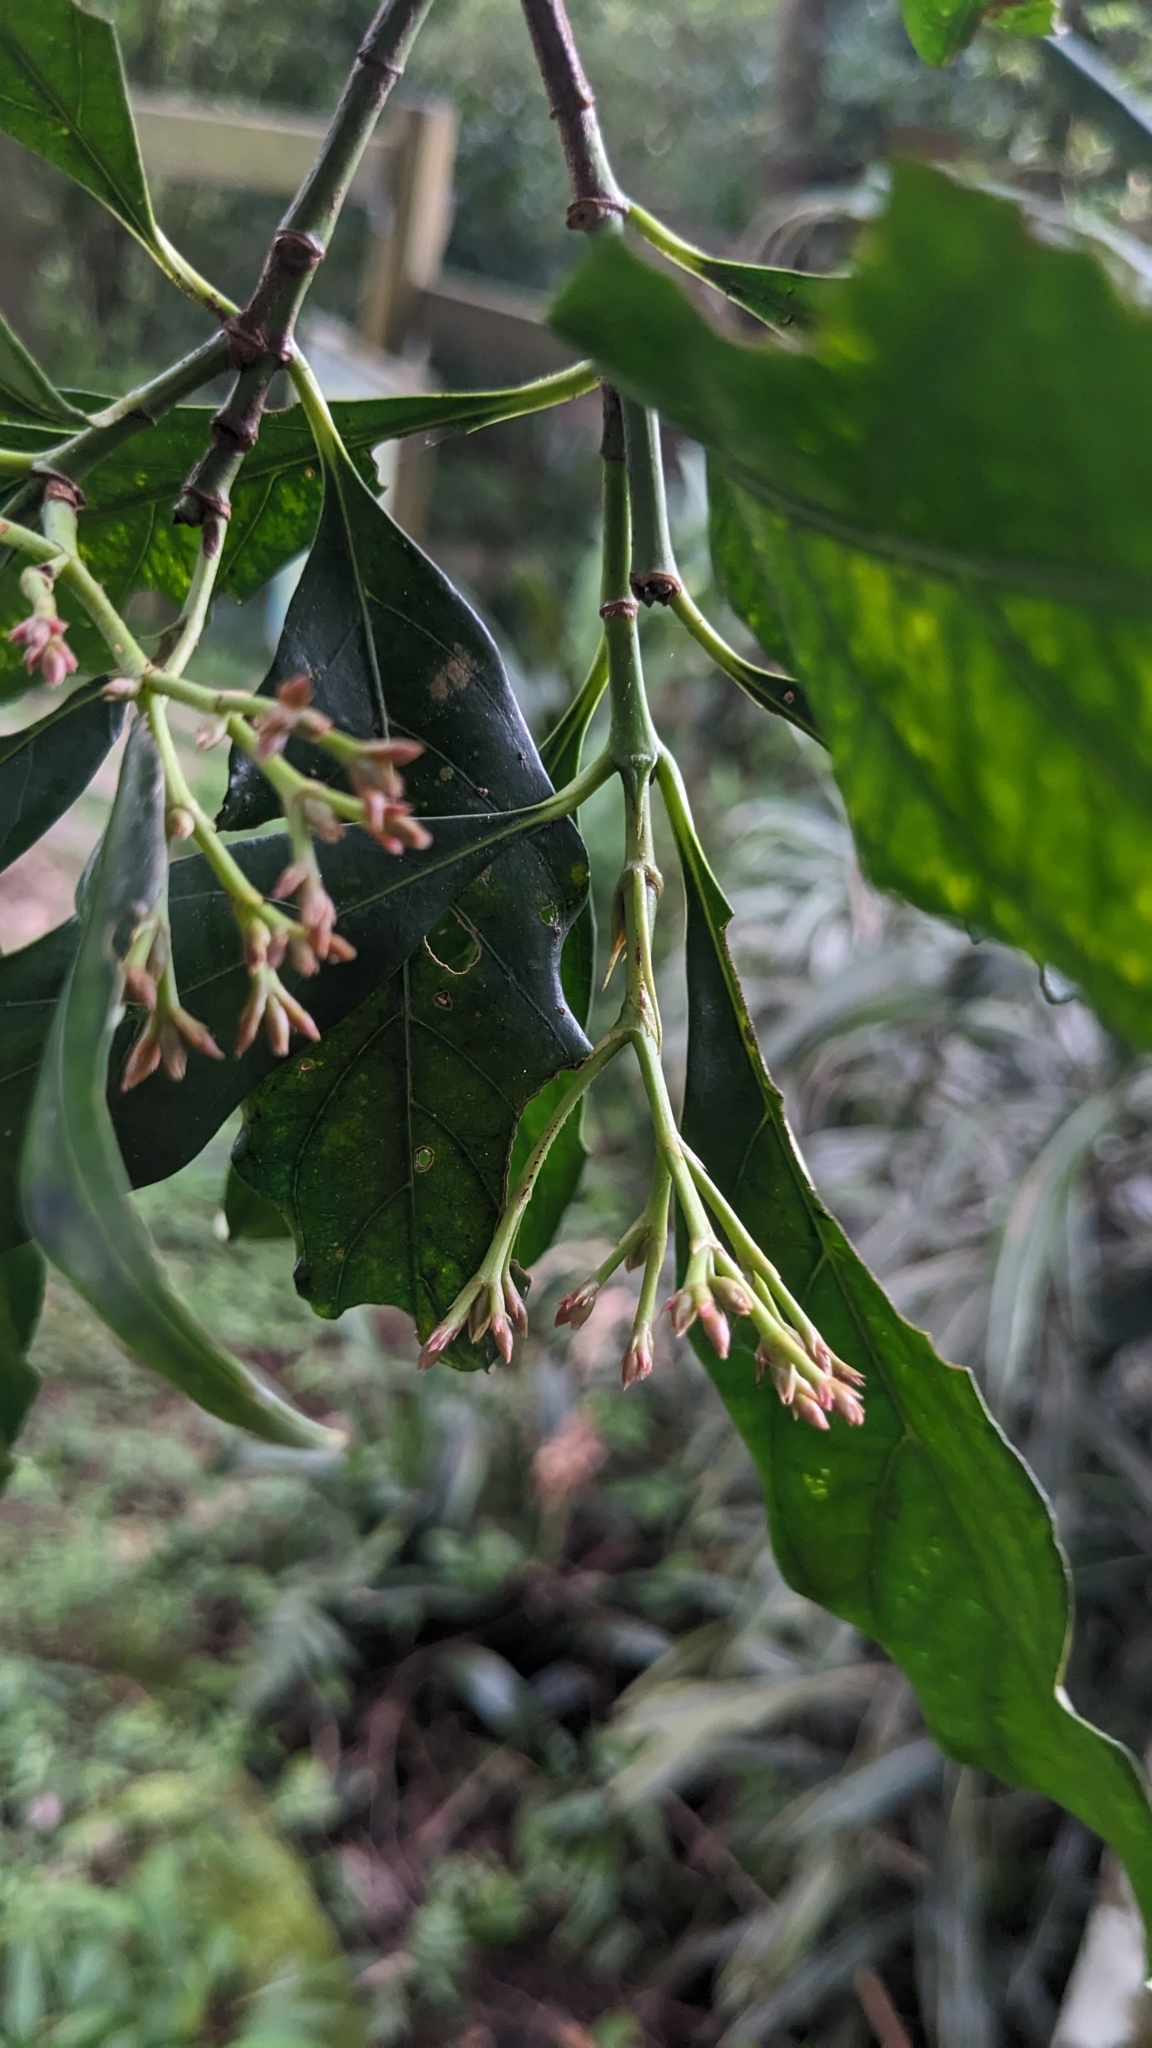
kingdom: Plantae
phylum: Tracheophyta
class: Magnoliopsida
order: Gentianales
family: Rubiaceae
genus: Aidia
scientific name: Aidia cochinchinensis
